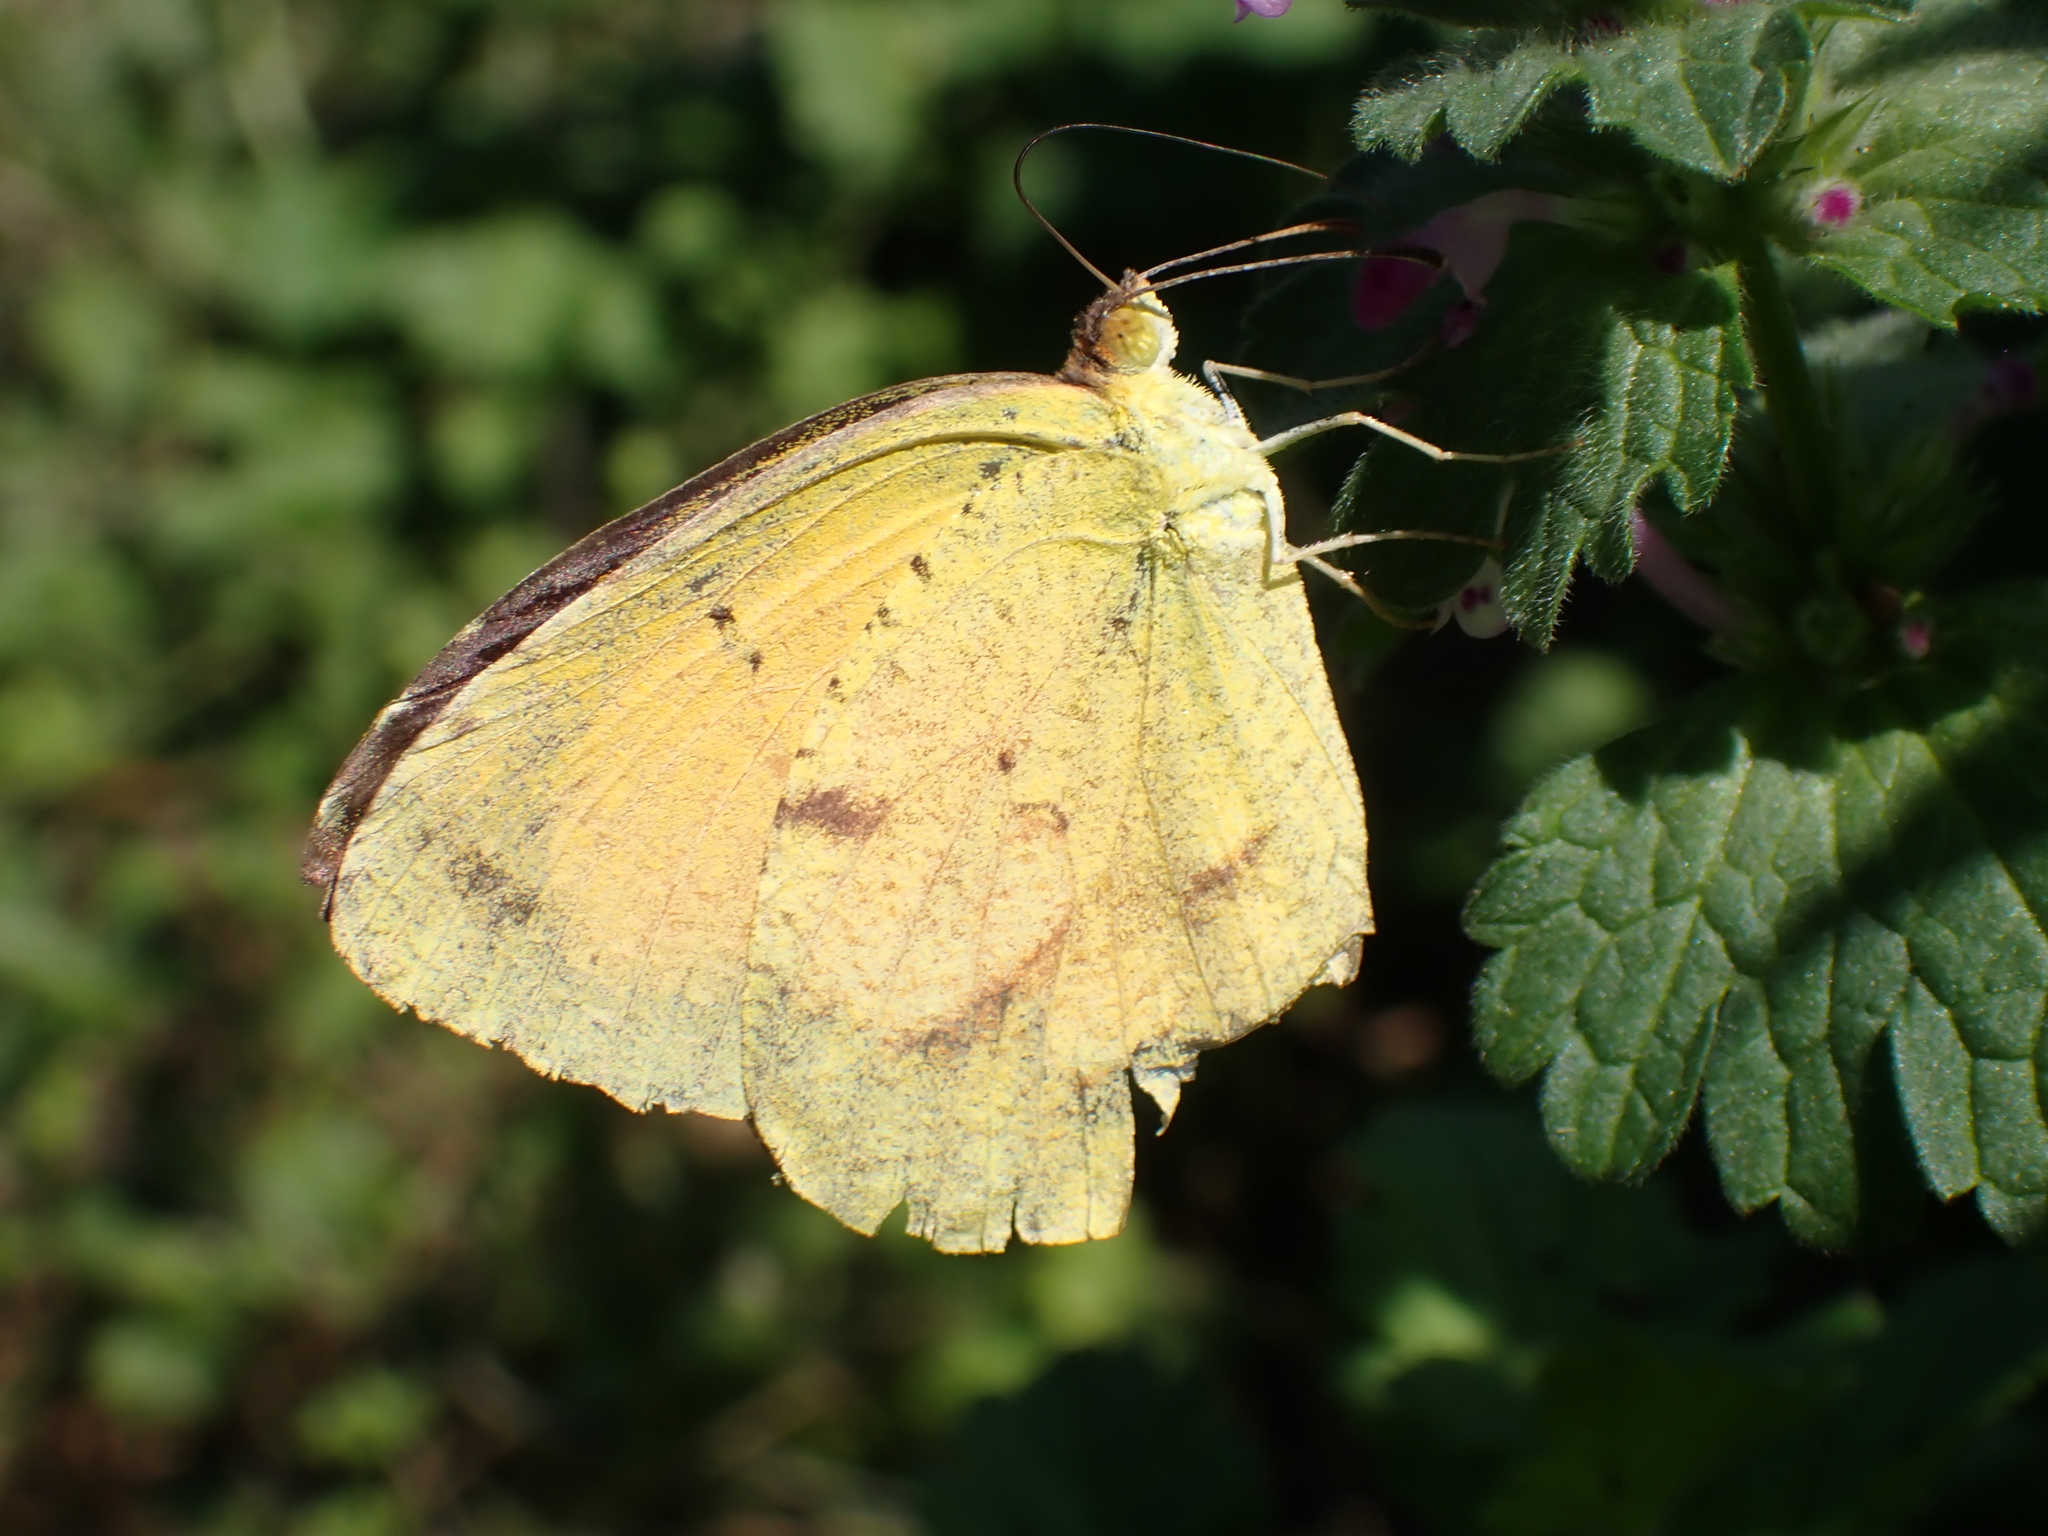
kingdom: Animalia
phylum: Arthropoda
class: Insecta
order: Lepidoptera
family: Pieridae
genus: Abaeis
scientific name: Abaeis nicippe
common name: Sleepy orange
